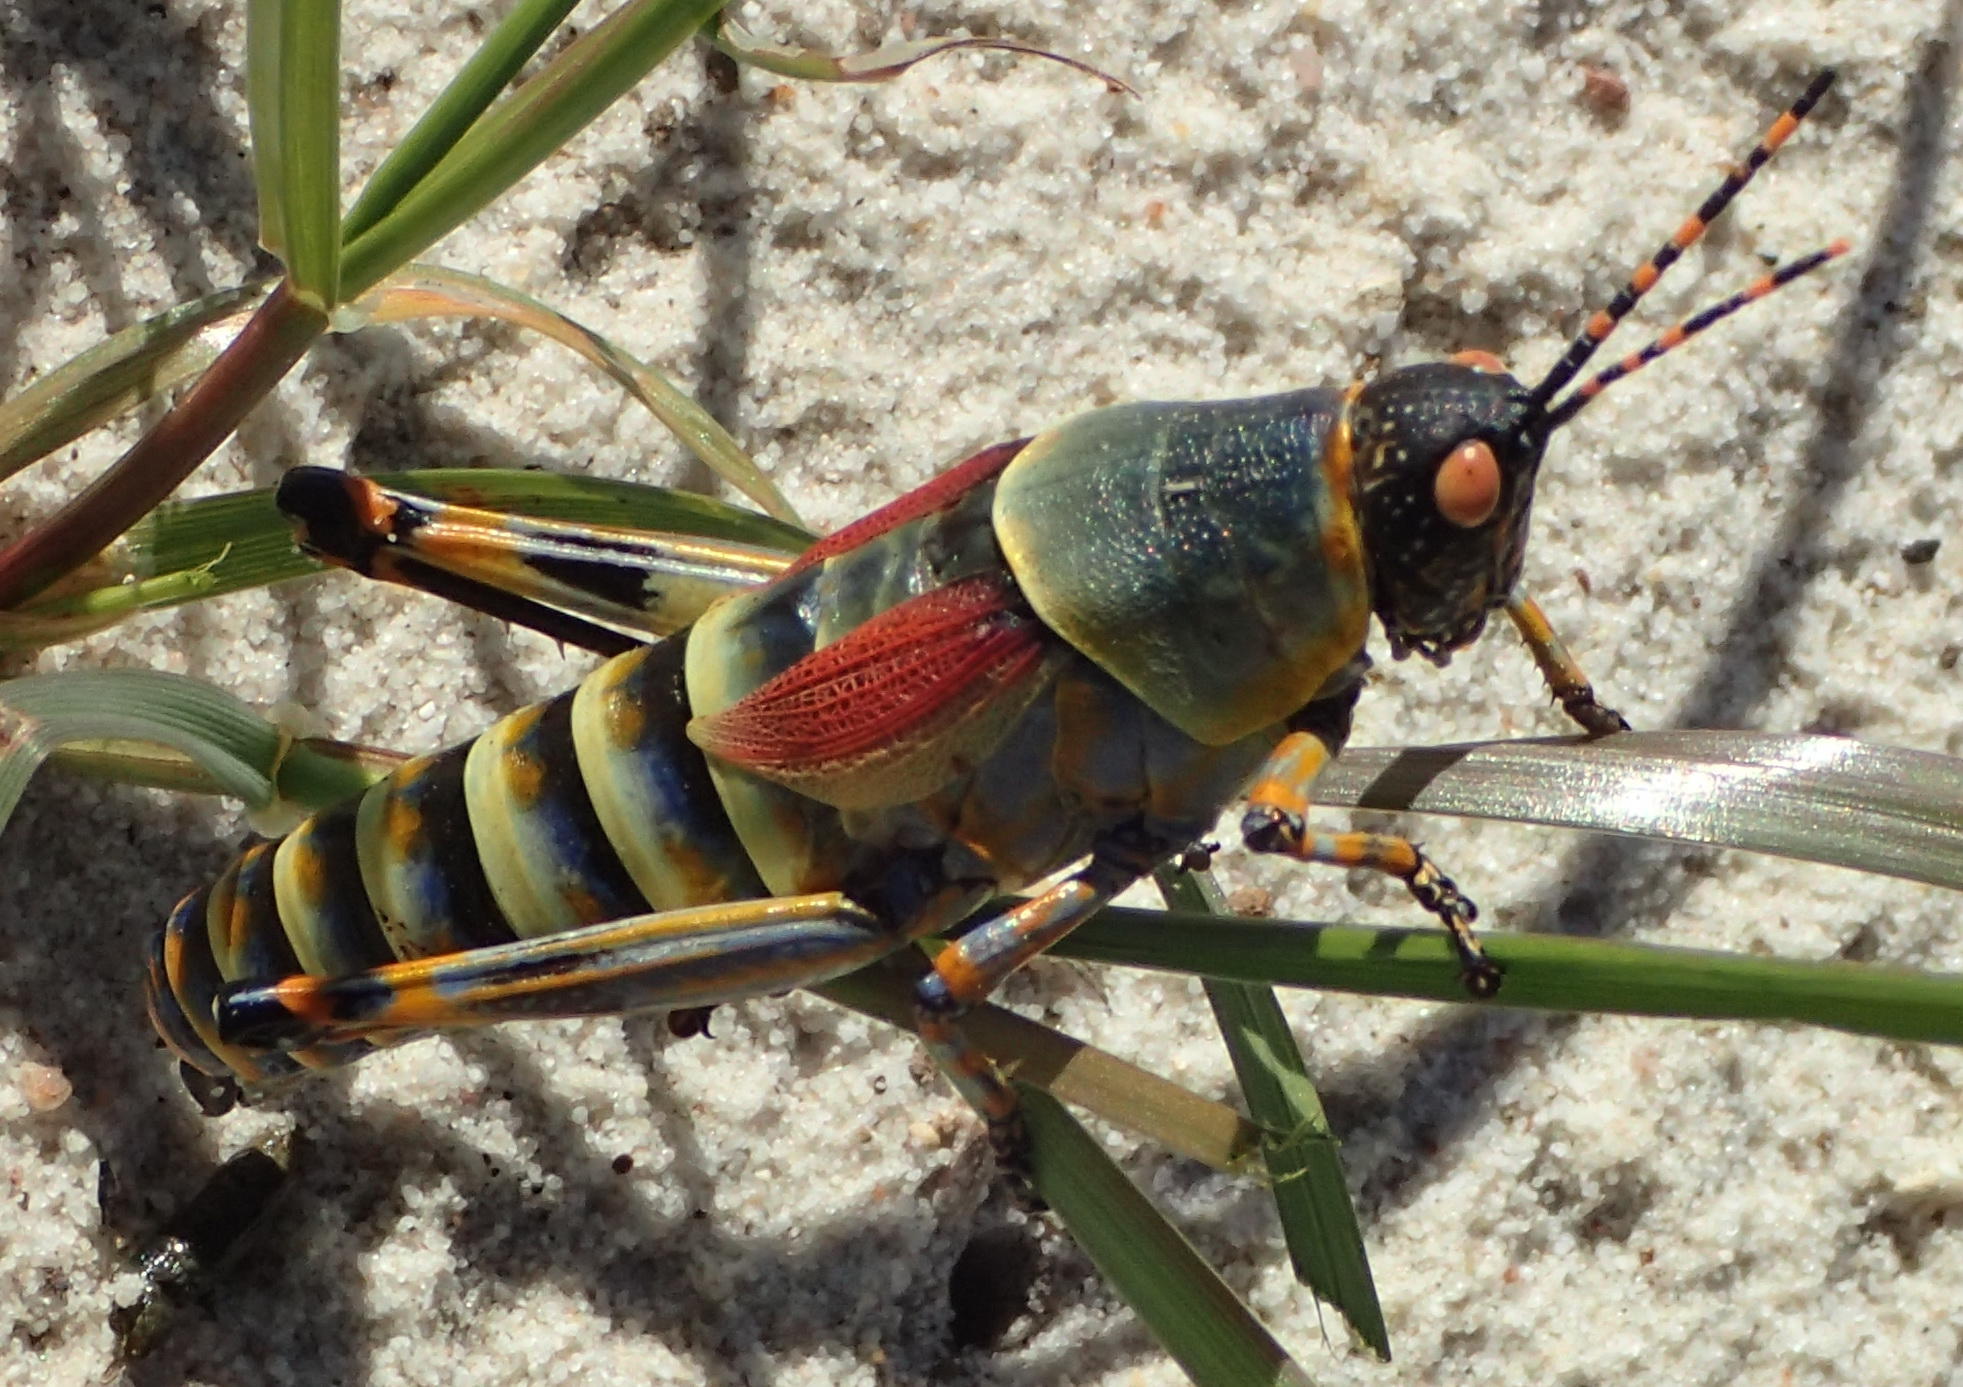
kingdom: Animalia
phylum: Arthropoda
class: Insecta
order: Orthoptera
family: Pyrgomorphidae
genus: Zonocerus
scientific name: Zonocerus elegans
